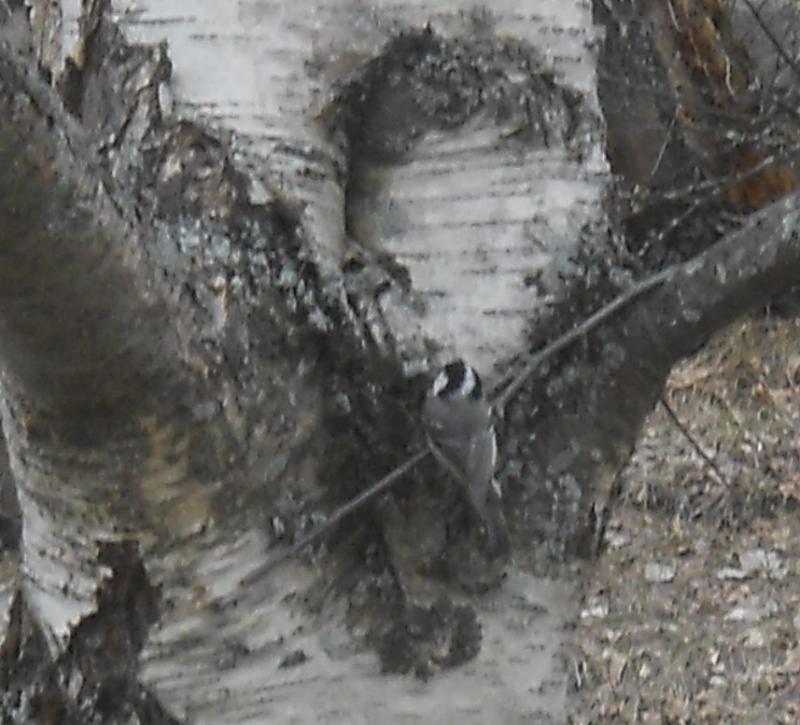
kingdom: Animalia
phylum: Chordata
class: Aves
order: Passeriformes
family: Paridae
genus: Periparus
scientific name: Periparus ater
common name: Coal tit
